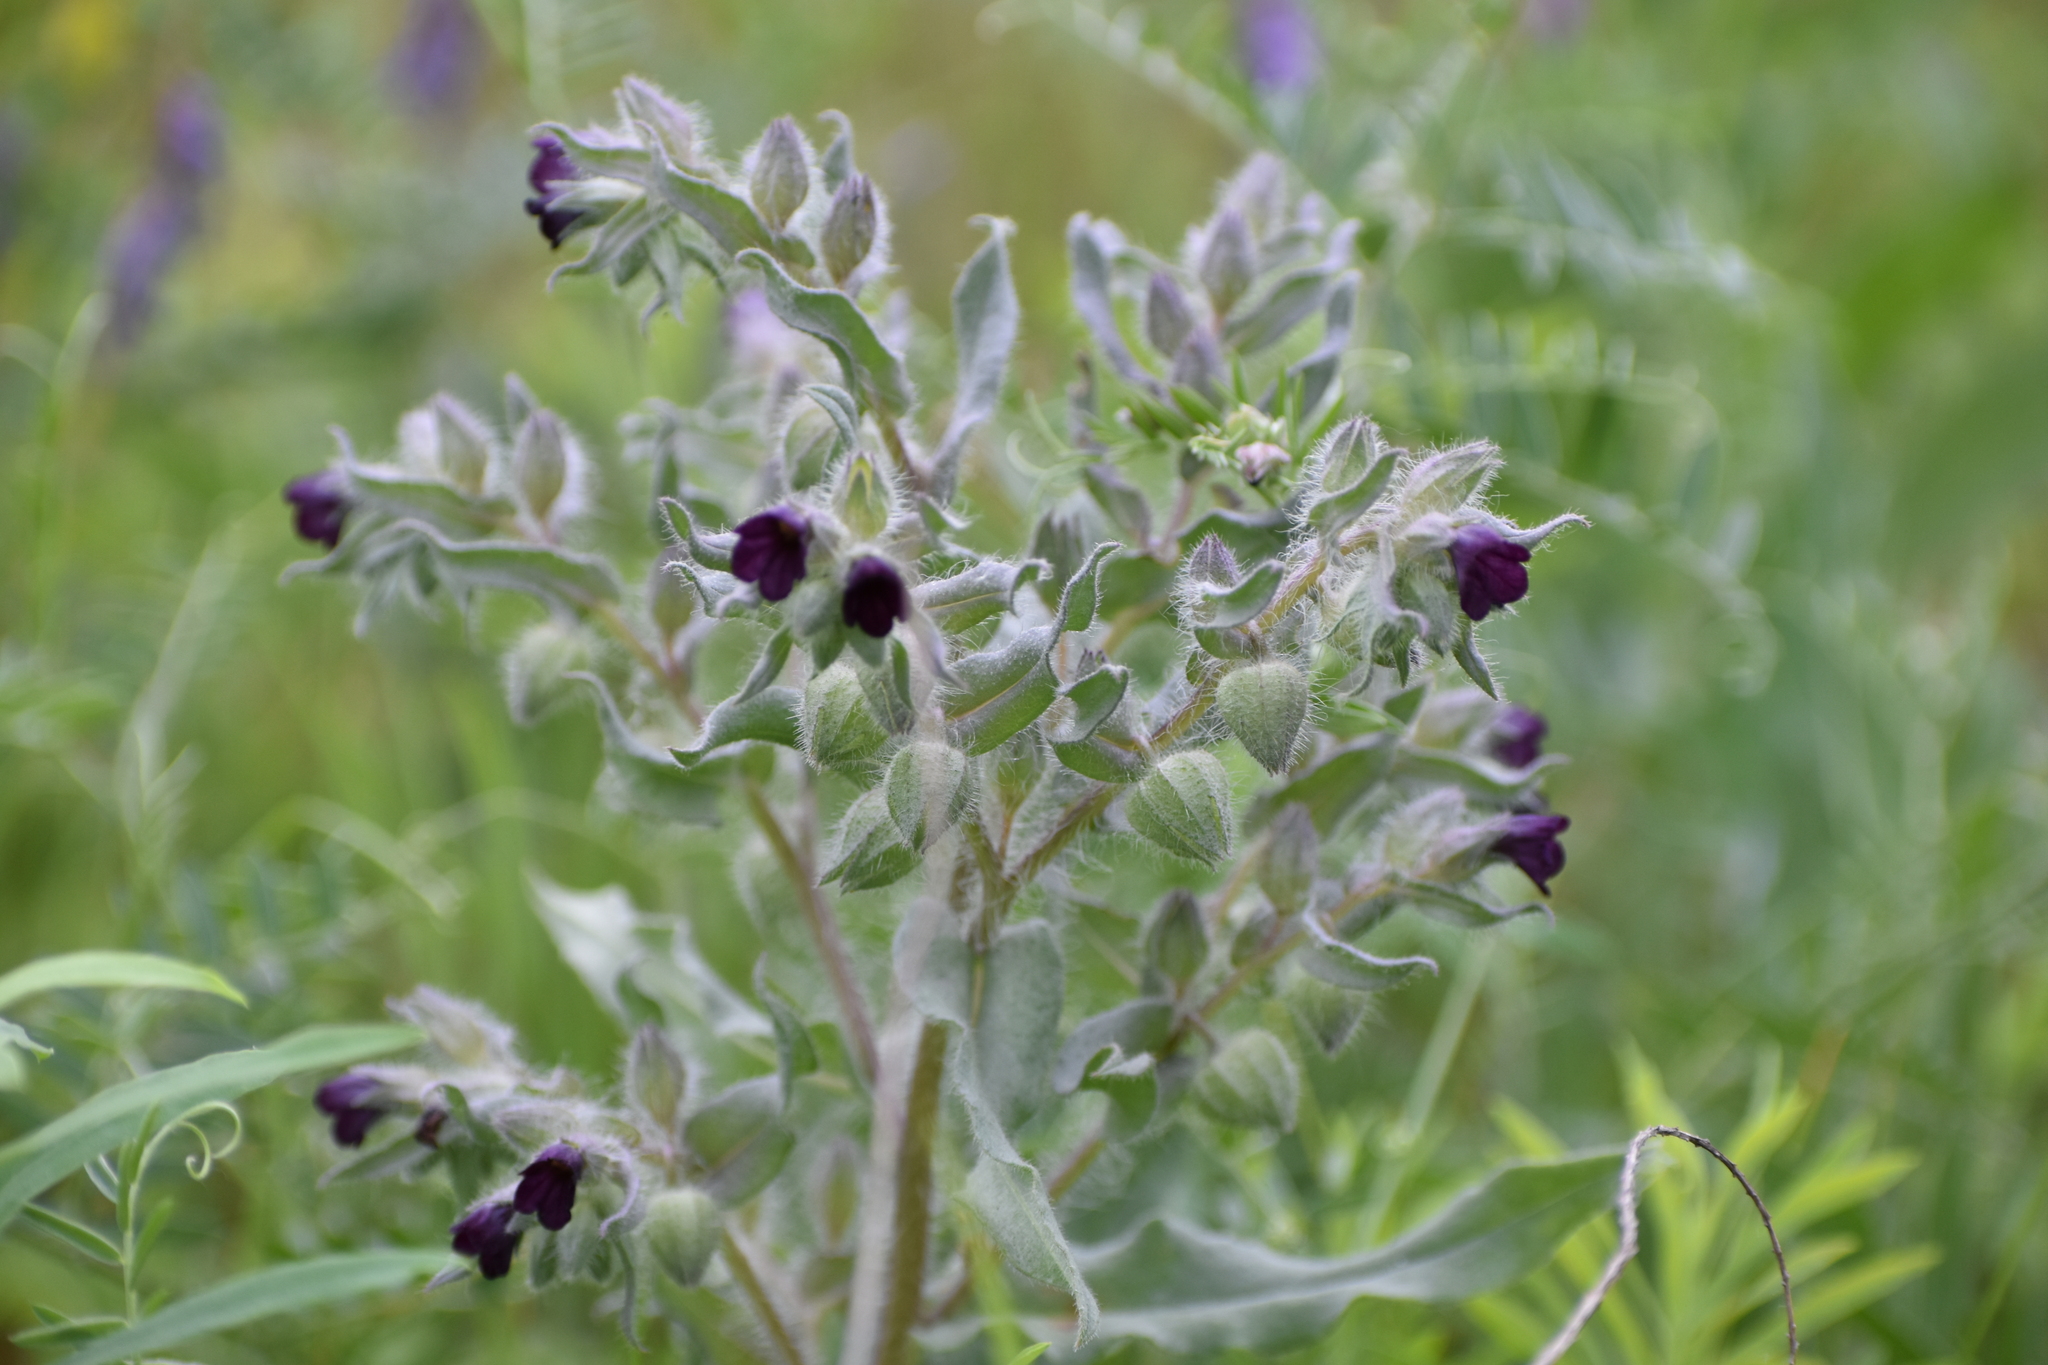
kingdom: Plantae
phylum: Tracheophyta
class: Magnoliopsida
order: Boraginales
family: Boraginaceae
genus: Nonea
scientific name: Nonea pulla
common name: Brown nonea
